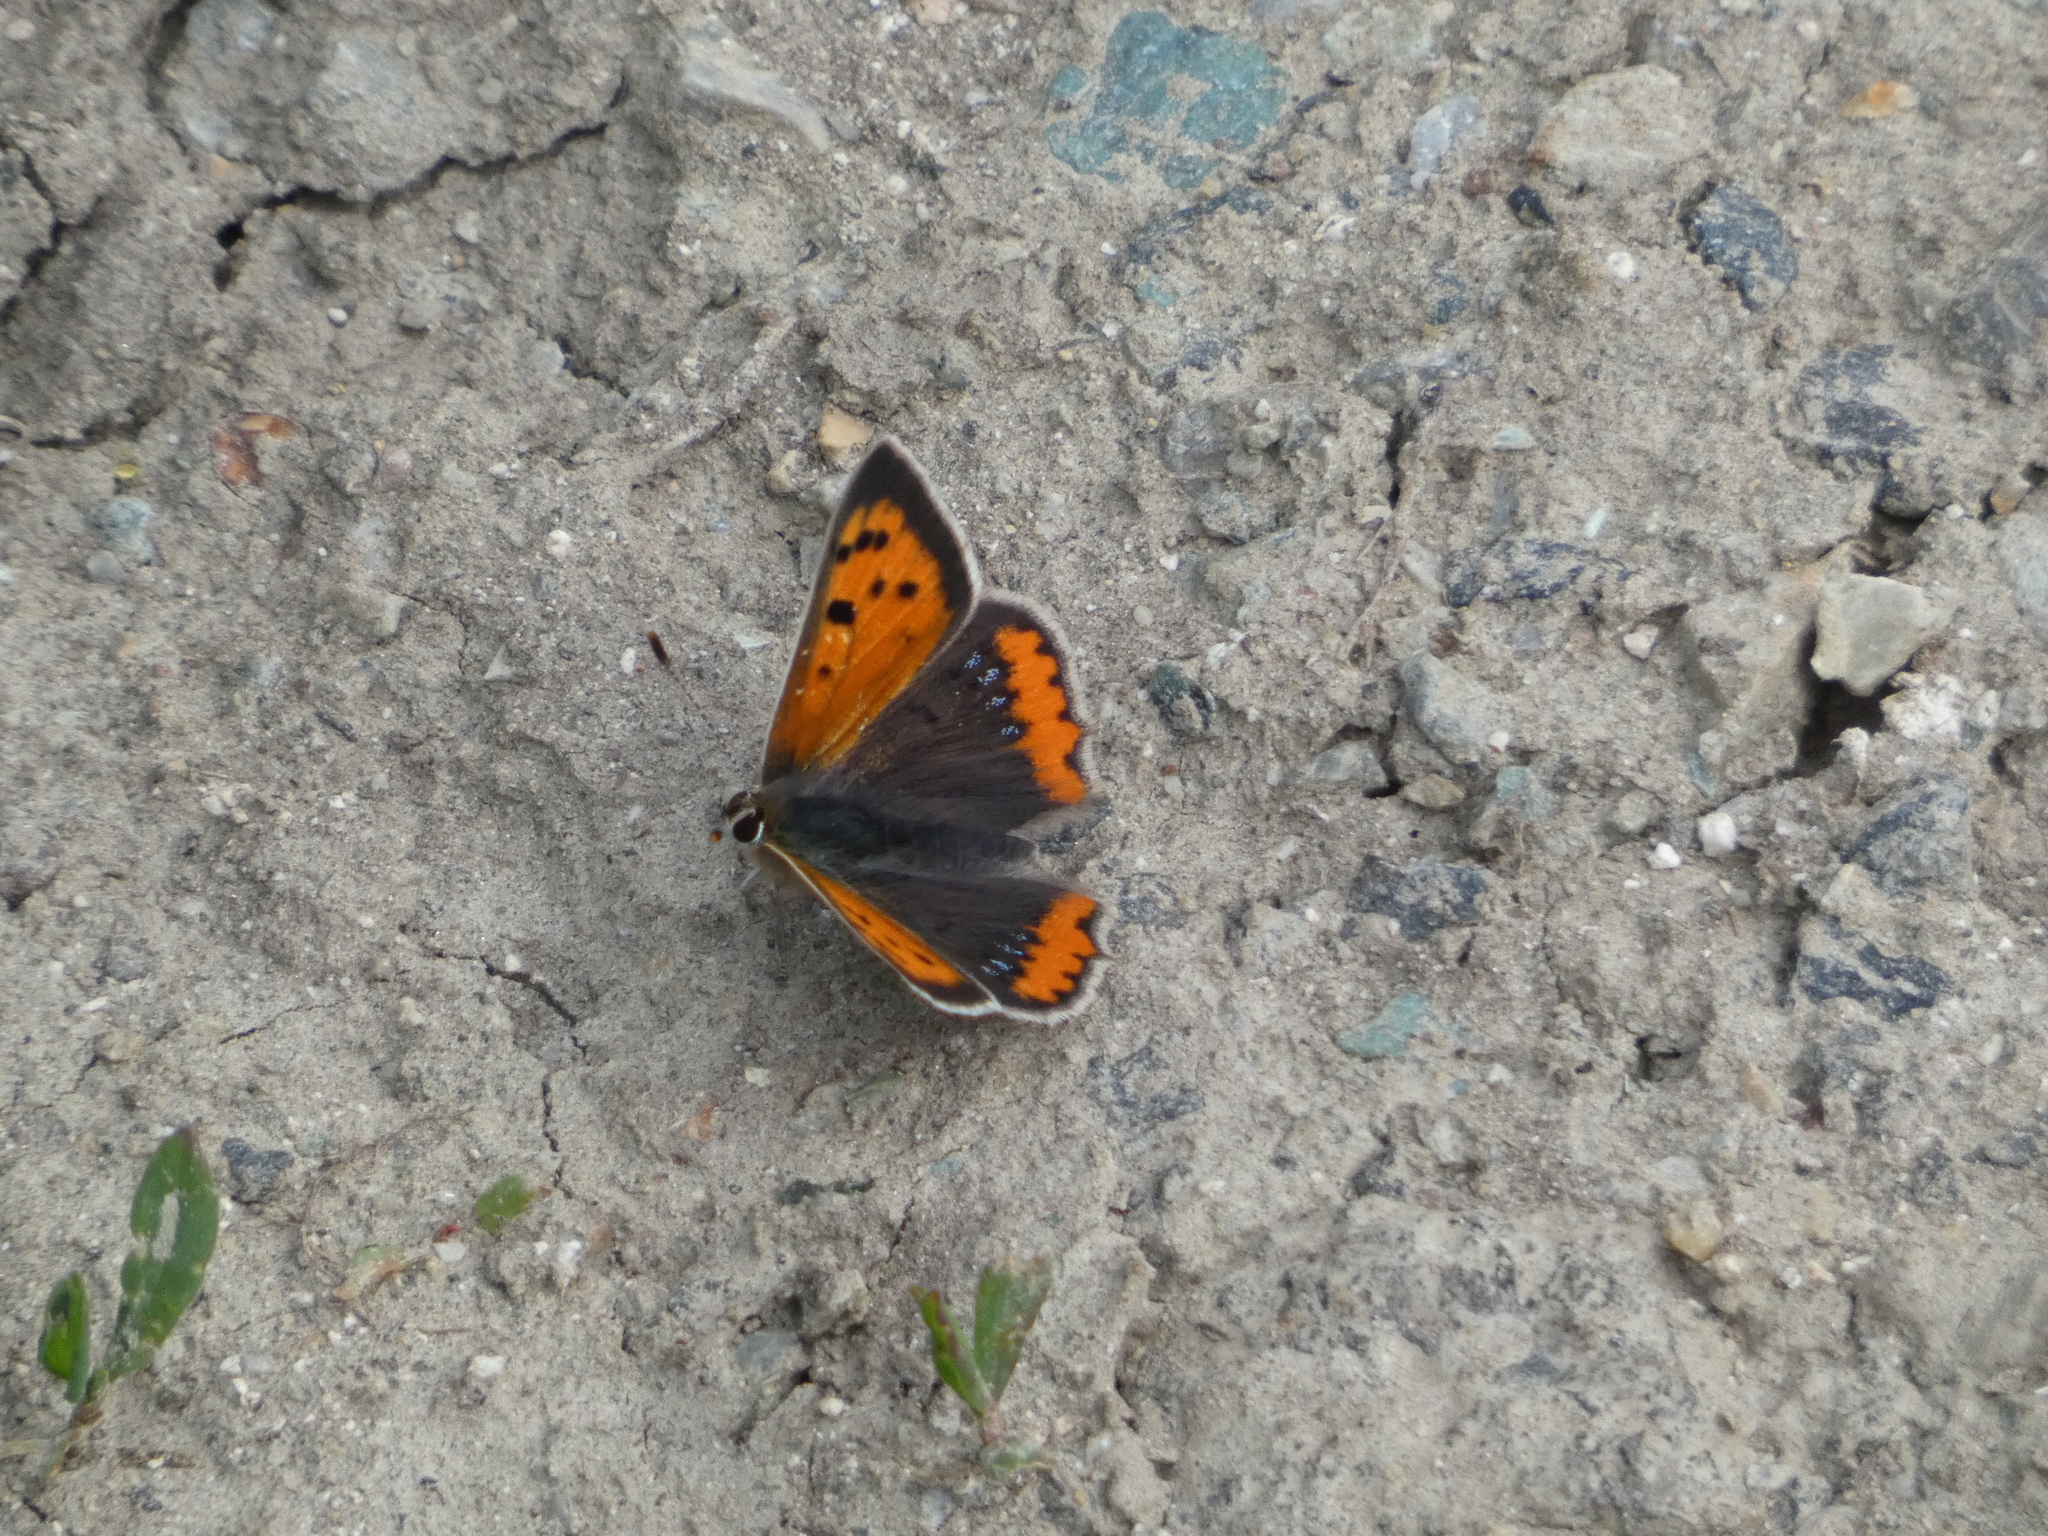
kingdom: Animalia
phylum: Arthropoda
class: Insecta
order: Lepidoptera
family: Lycaenidae
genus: Lycaena
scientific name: Lycaena phlaeas
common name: Small copper
